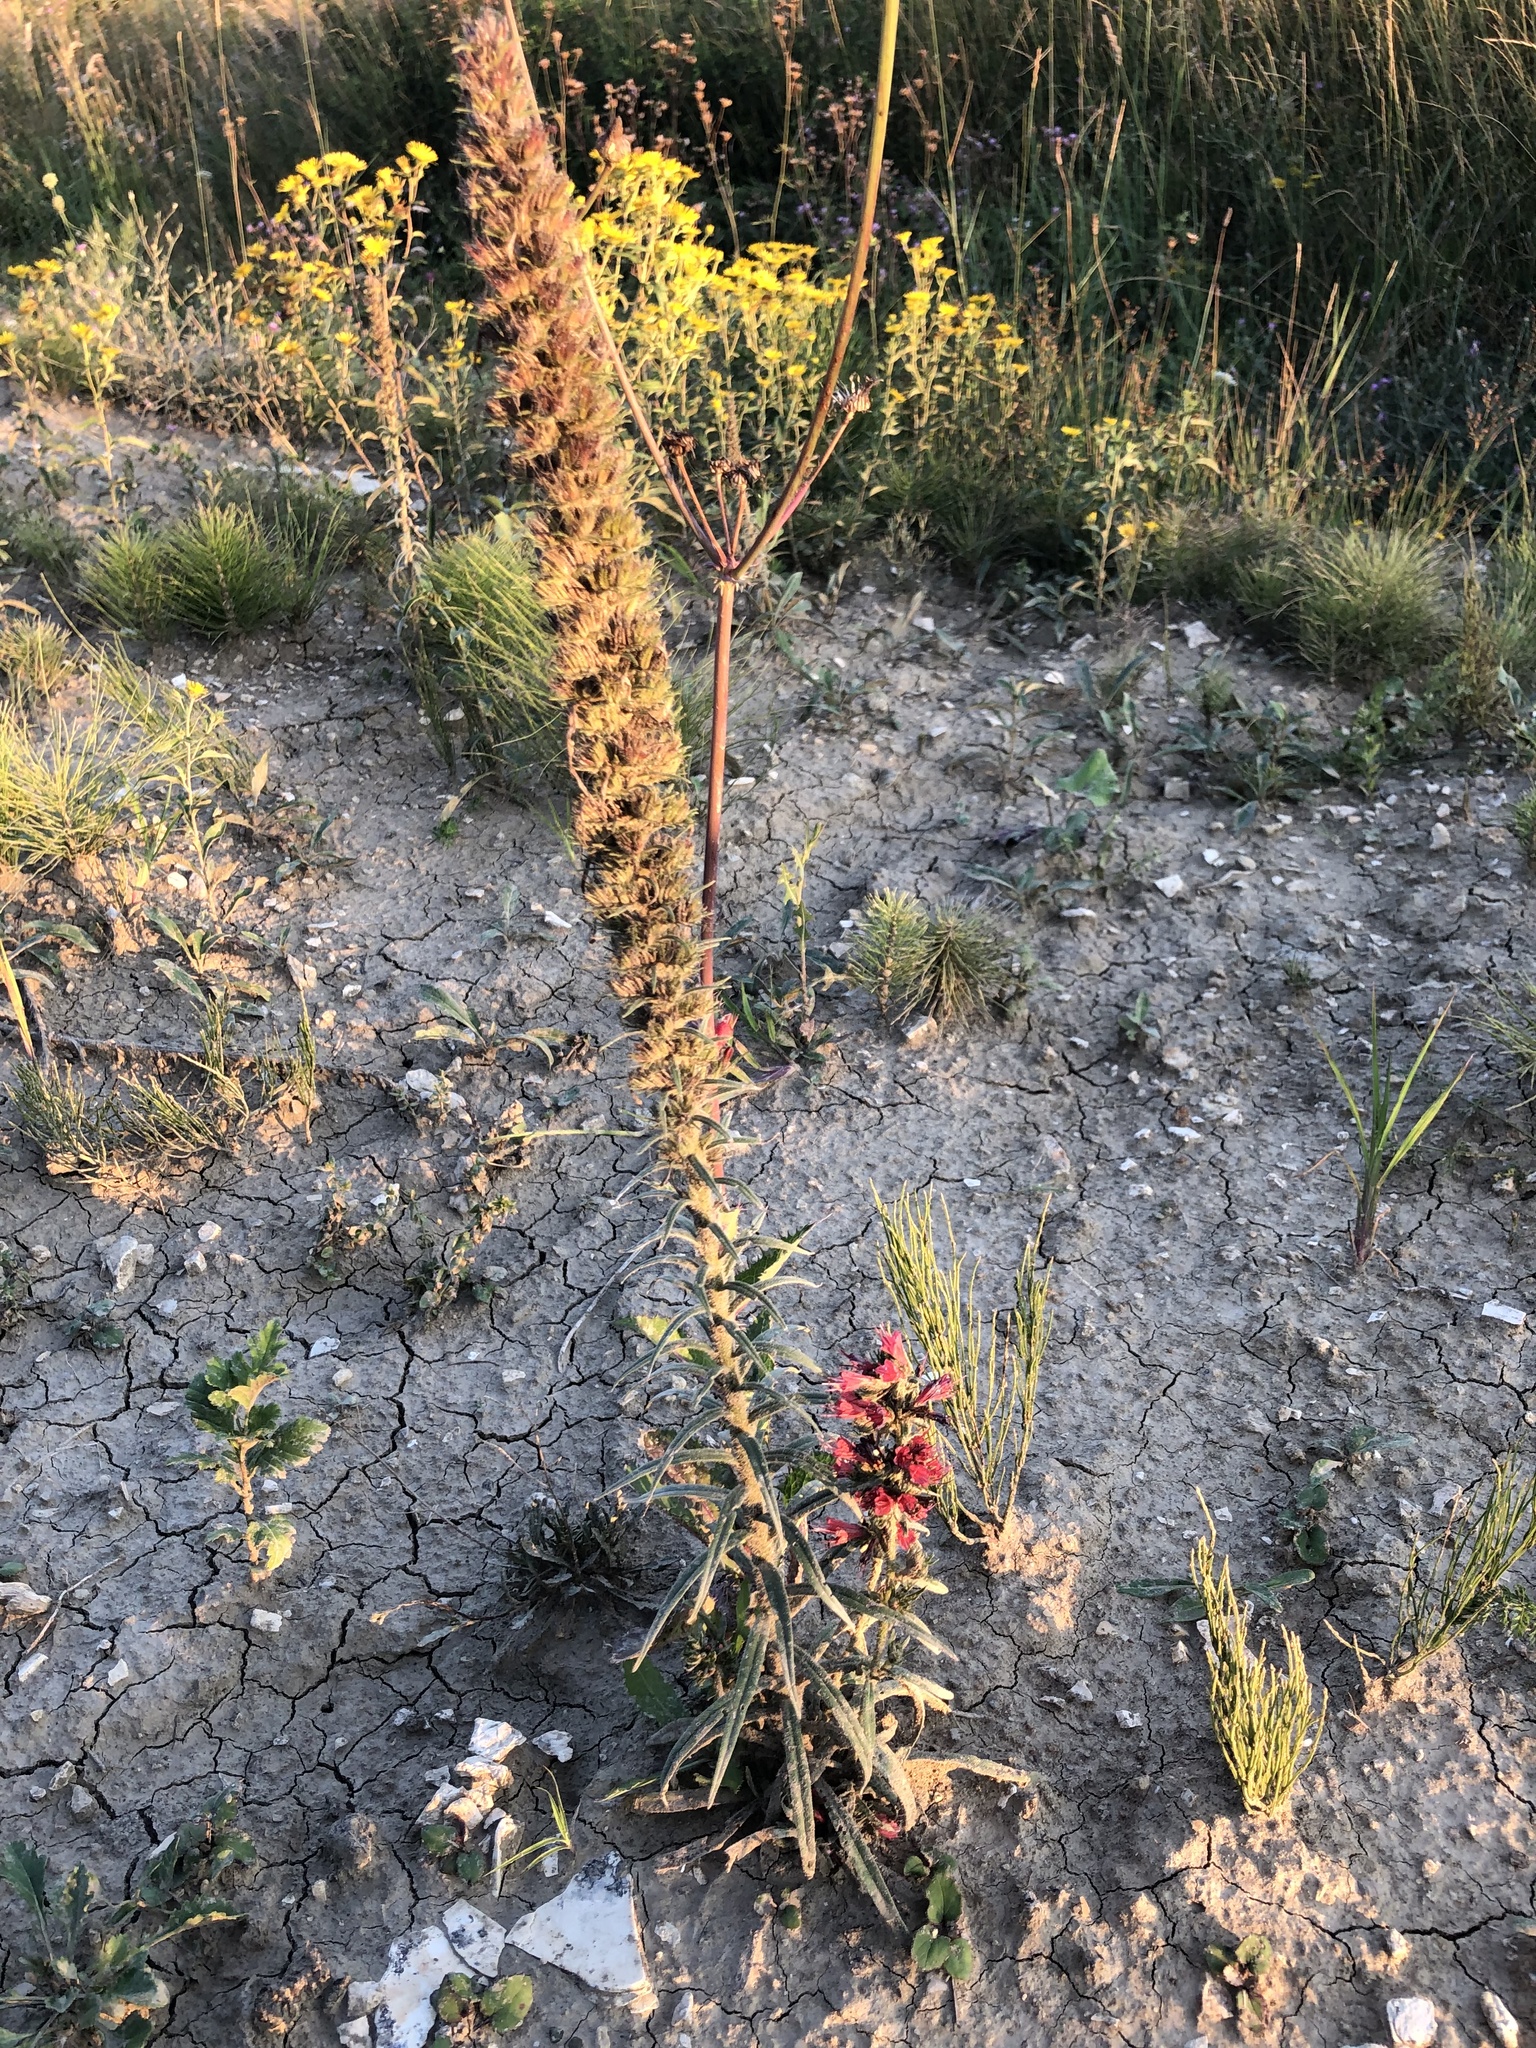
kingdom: Plantae
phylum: Tracheophyta
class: Magnoliopsida
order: Boraginales
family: Boraginaceae
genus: Pontechium
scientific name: Pontechium maculatum
